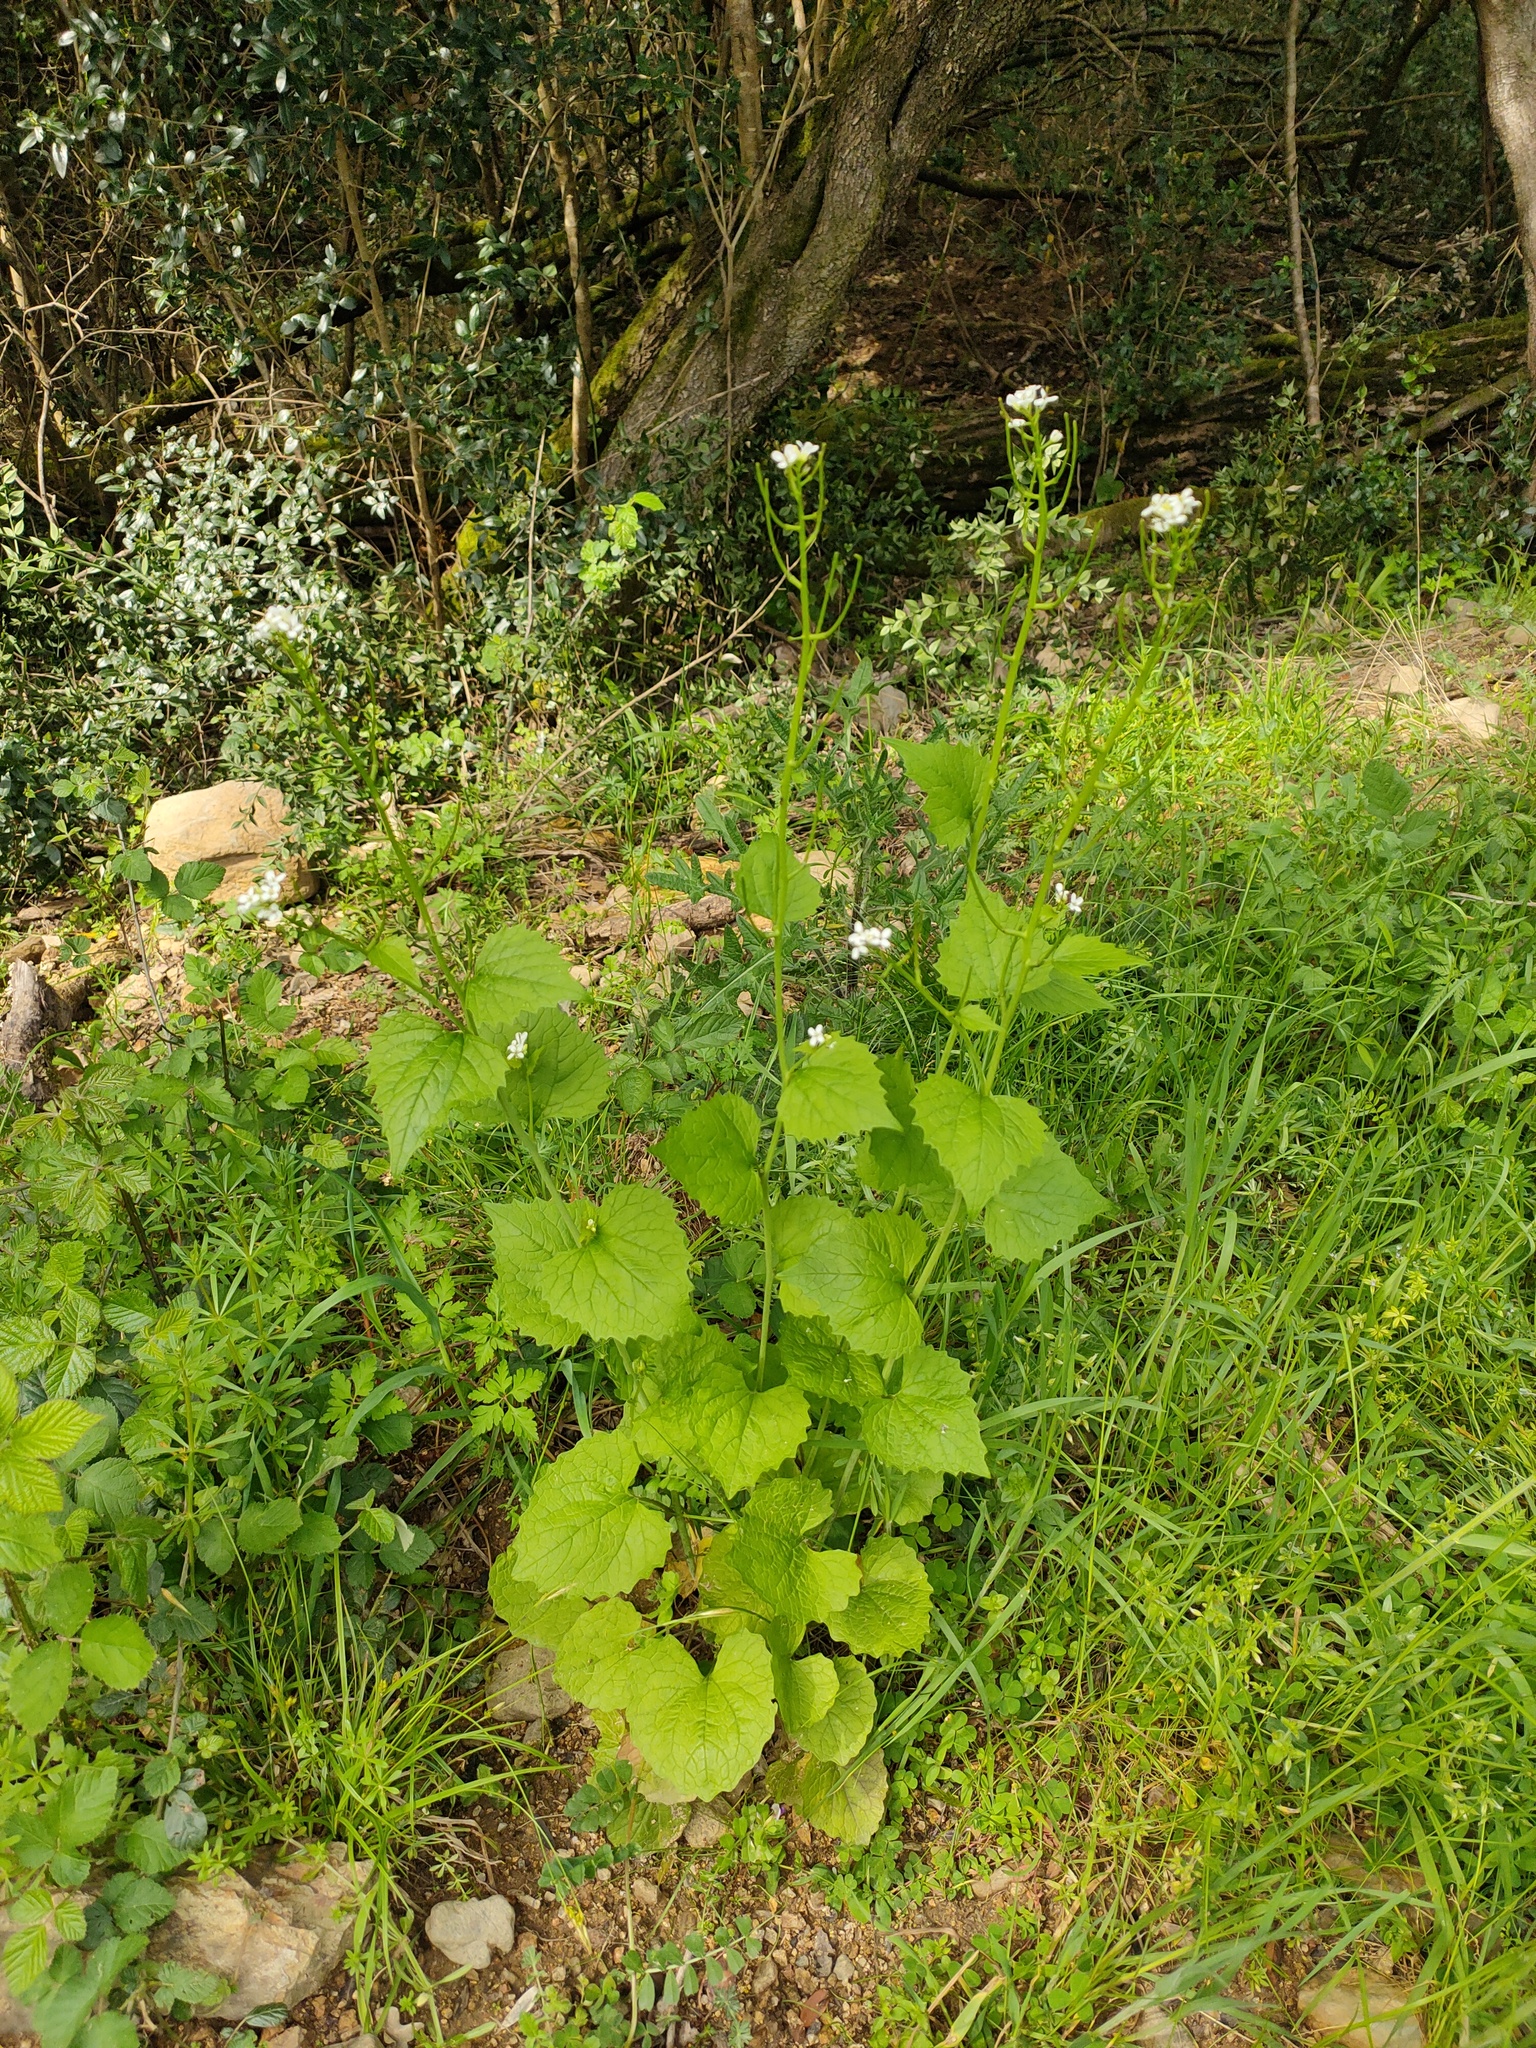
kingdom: Plantae
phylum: Tracheophyta
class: Magnoliopsida
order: Brassicales
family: Brassicaceae
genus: Alliaria
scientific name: Alliaria petiolata
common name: Garlic mustard
